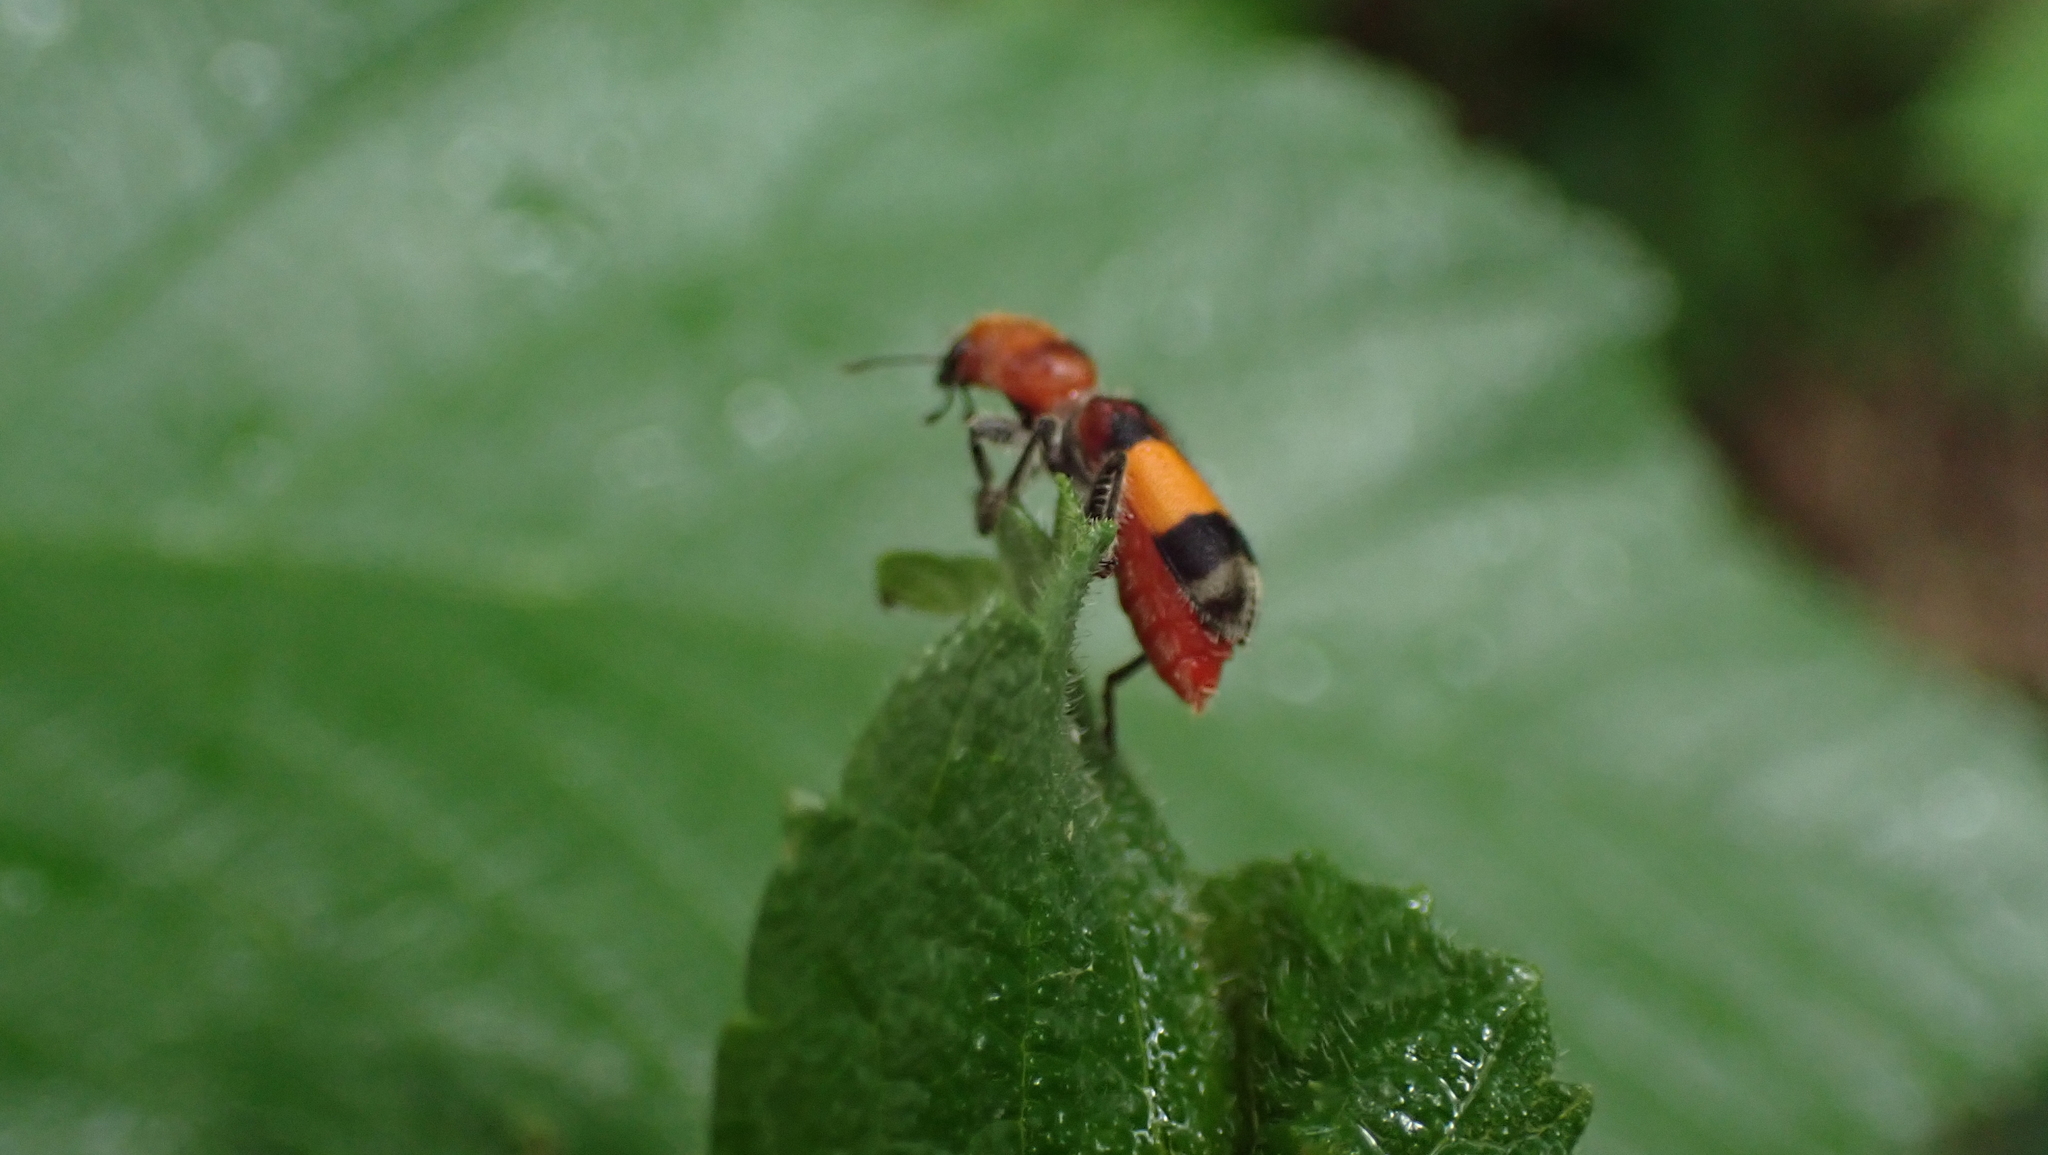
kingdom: Animalia
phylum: Arthropoda
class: Insecta
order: Coleoptera
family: Cleridae
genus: Enoclerus
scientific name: Enoclerus ichneumoneus
